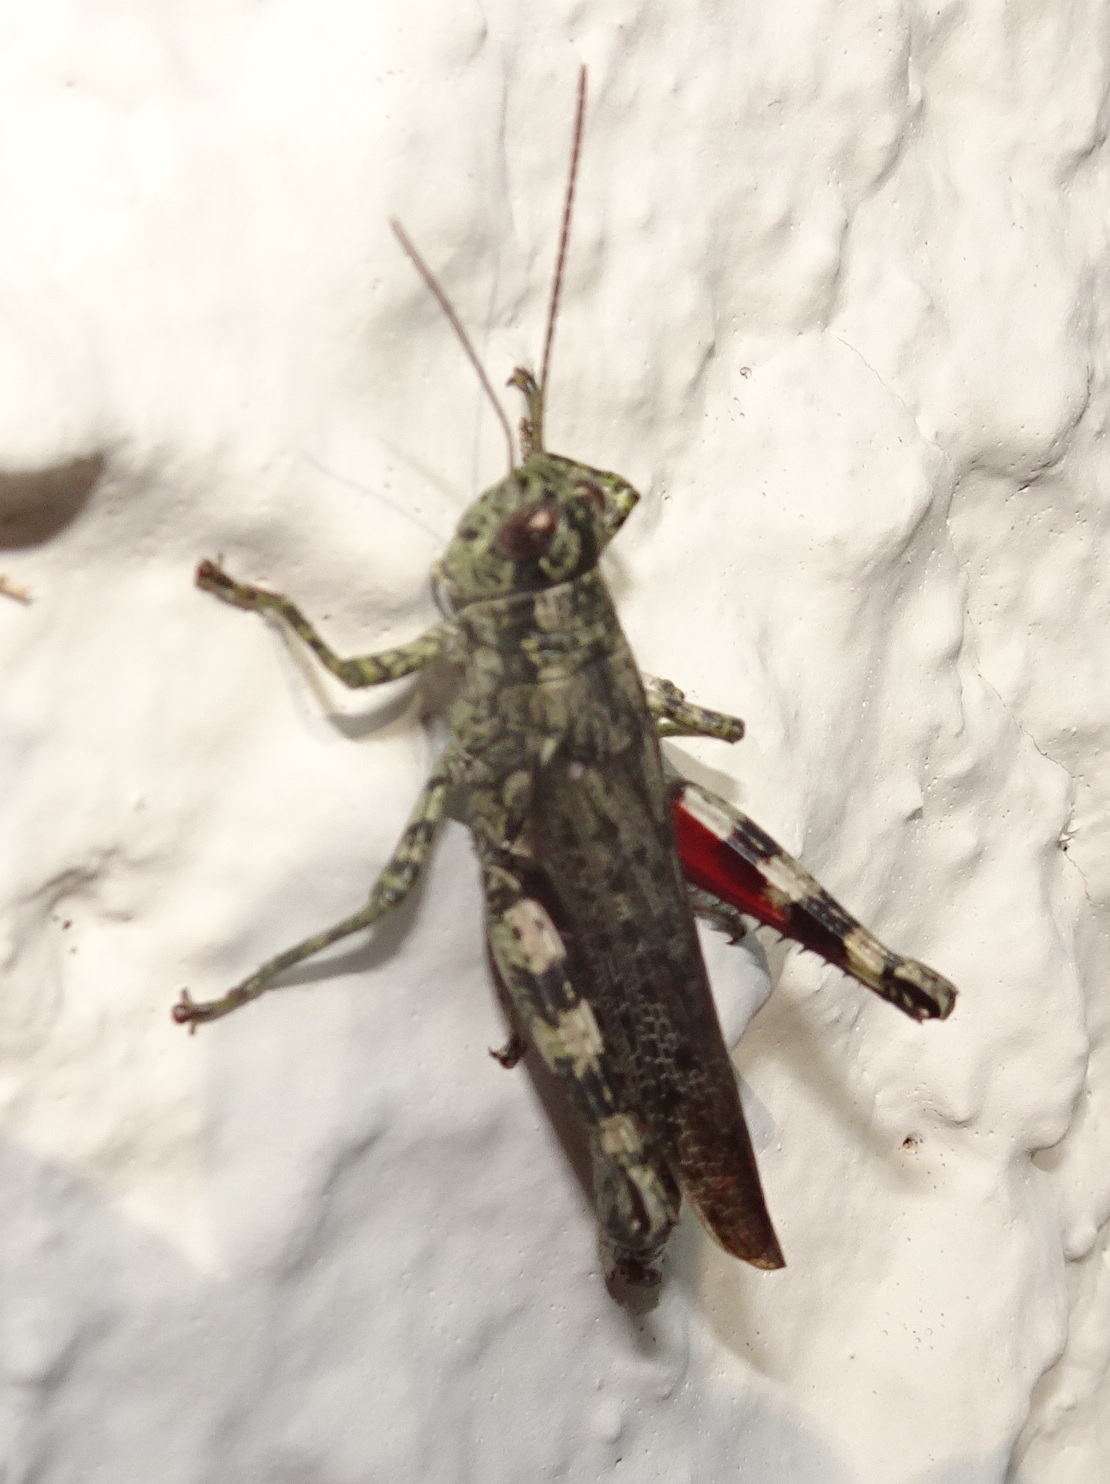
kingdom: Animalia
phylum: Arthropoda
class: Insecta
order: Orthoptera
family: Acrididae
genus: Melanoplus
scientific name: Melanoplus punctulatus
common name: Pine-tree spur-throat grasshopper
